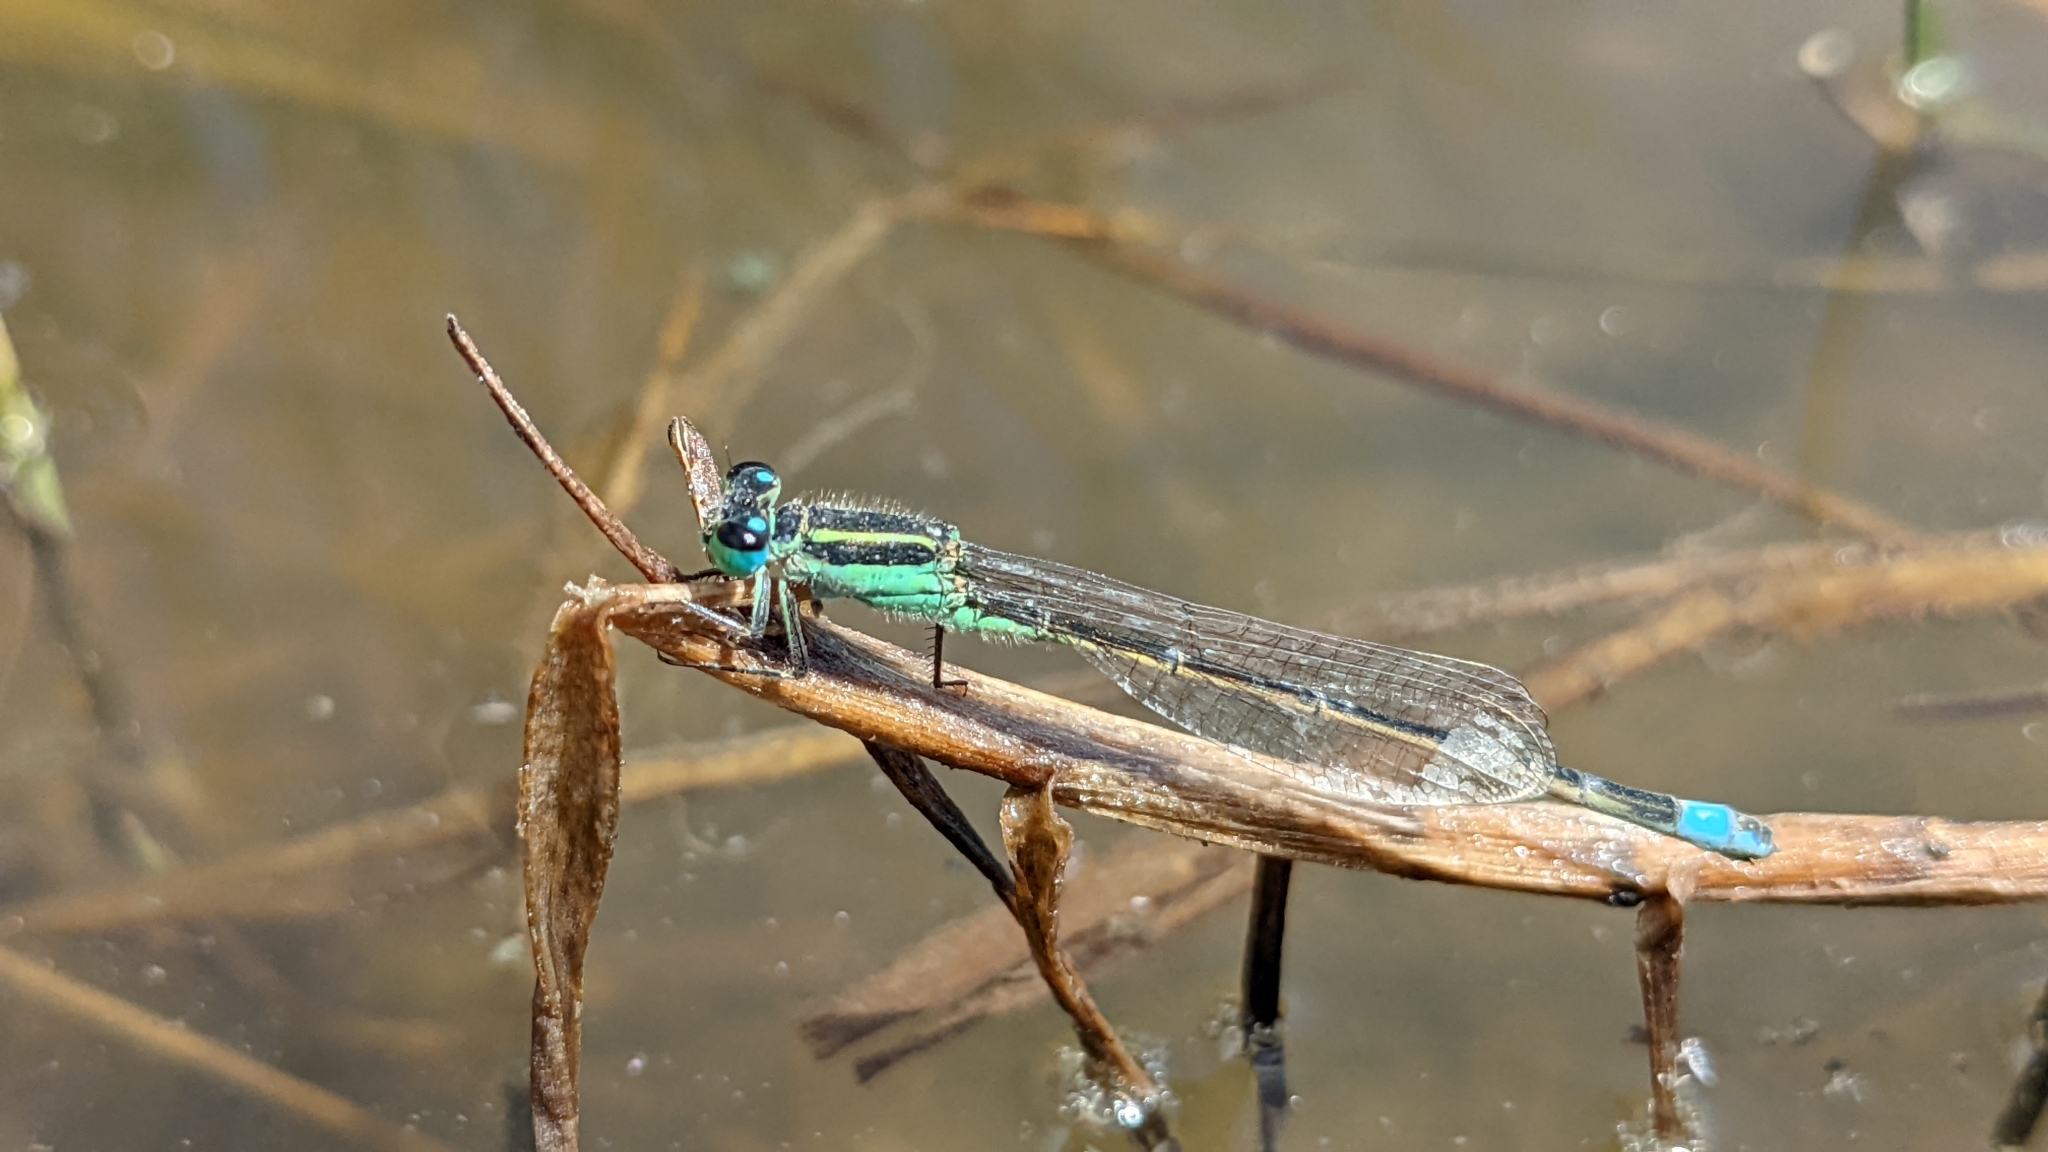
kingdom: Animalia
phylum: Arthropoda
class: Insecta
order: Odonata
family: Coenagrionidae
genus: Ischnura
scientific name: Ischnura ramburii
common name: Rambur's forktail
